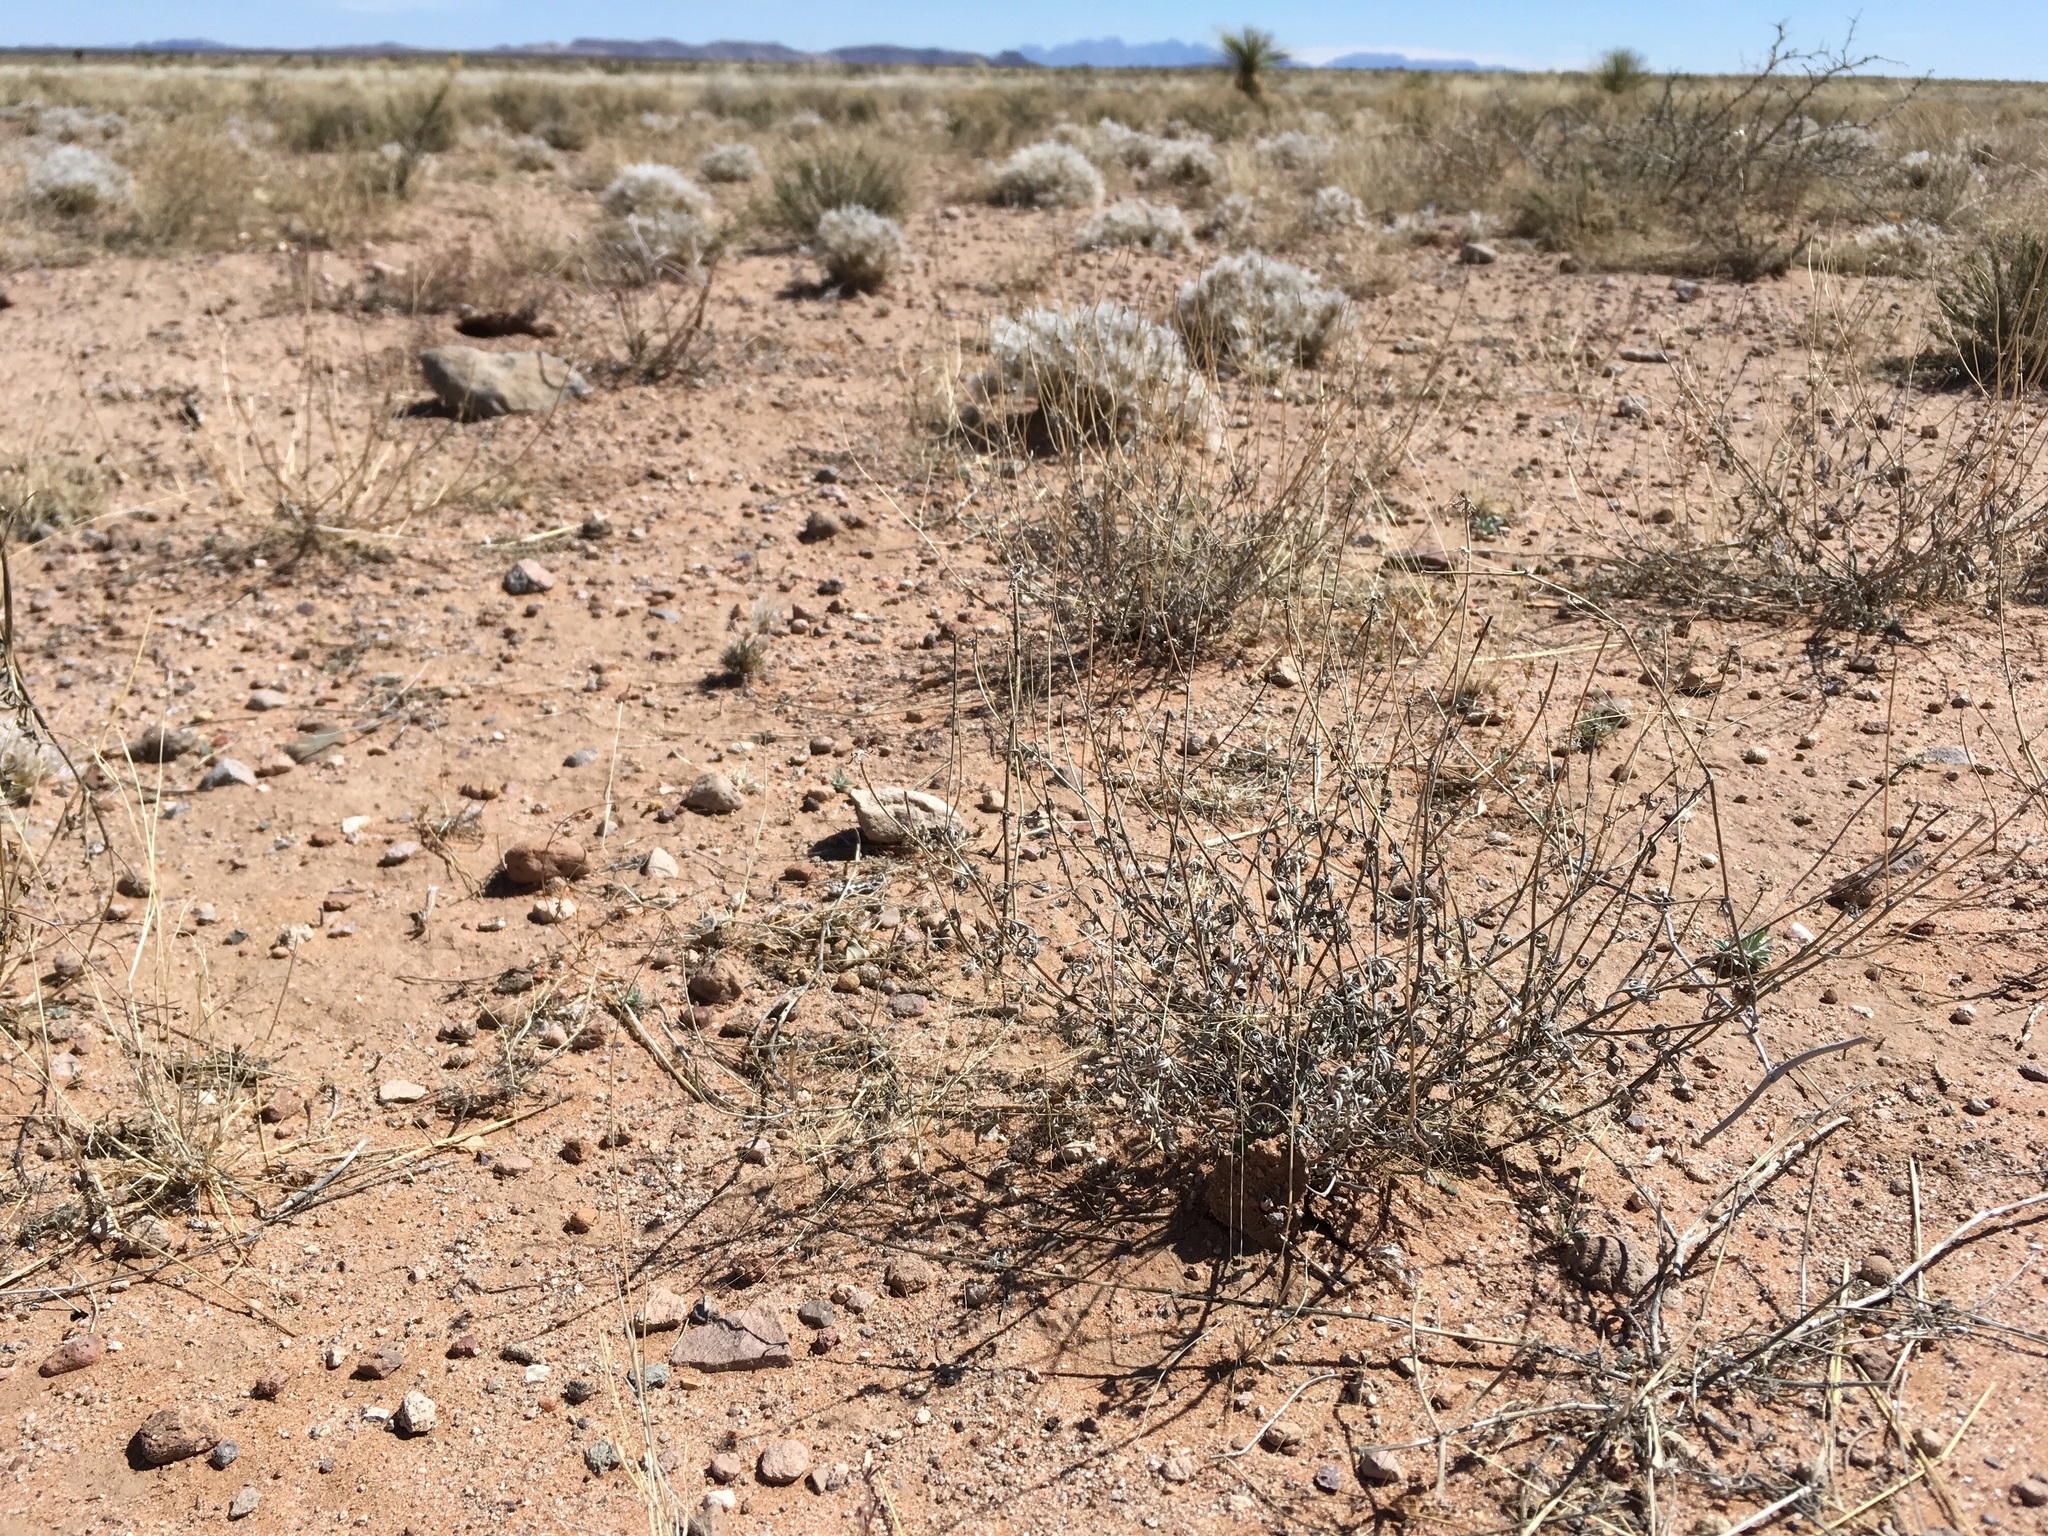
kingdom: Plantae
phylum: Tracheophyta
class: Magnoliopsida
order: Asterales
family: Asteraceae
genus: Picradeniopsis
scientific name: Picradeniopsis absinthifolia
